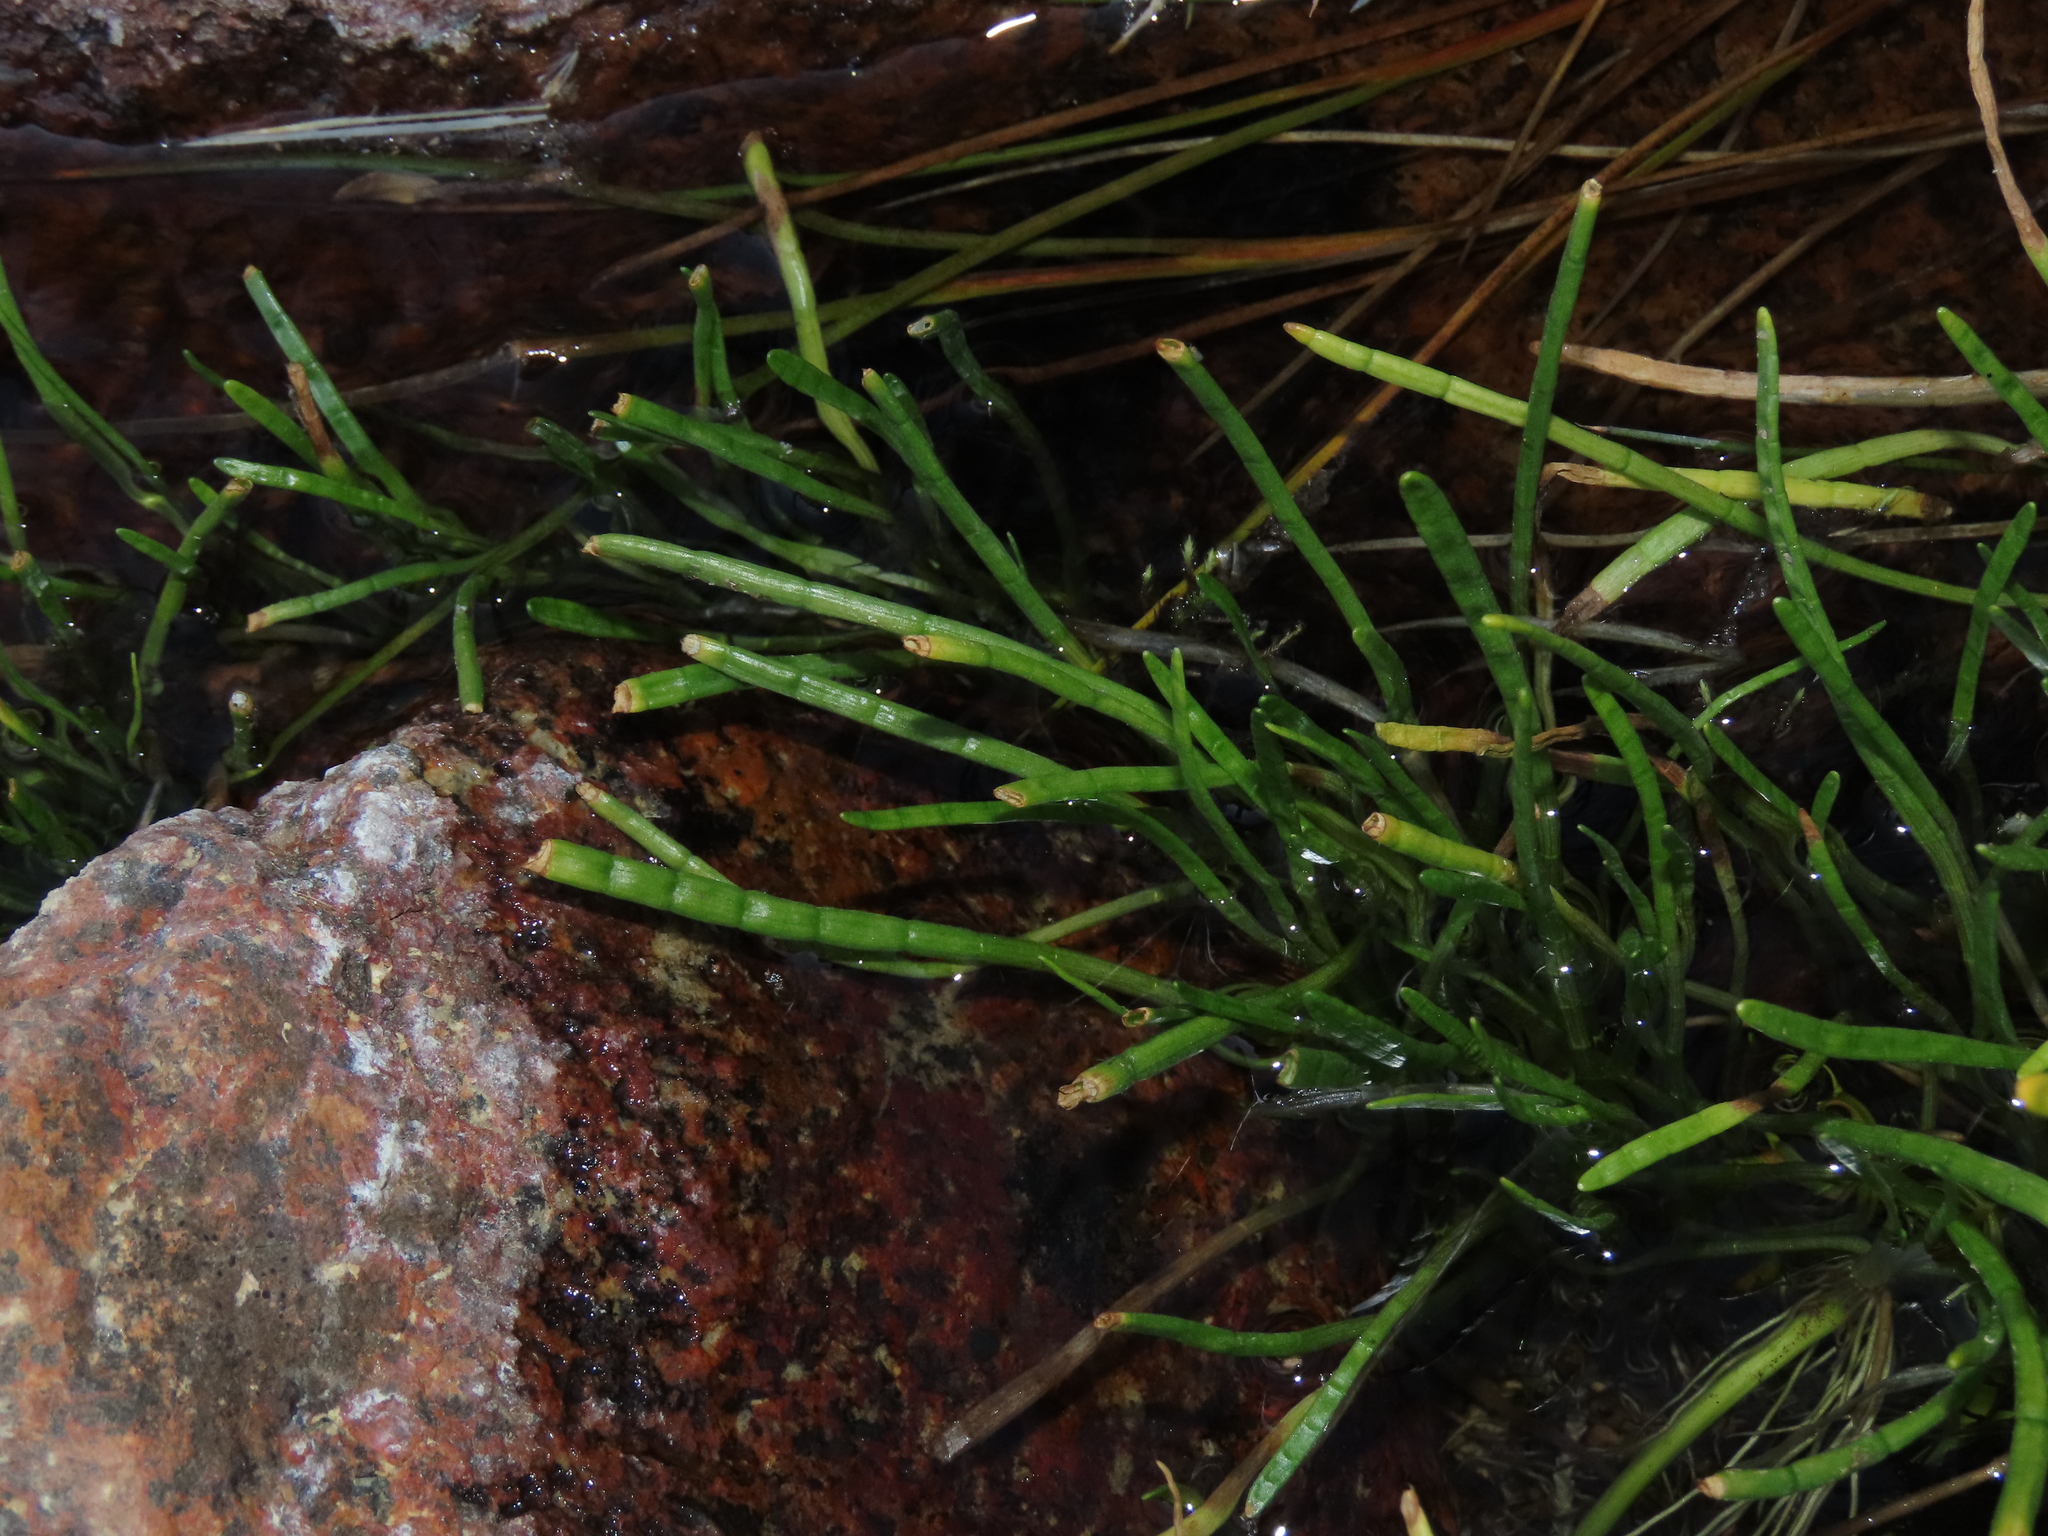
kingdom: Plantae
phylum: Tracheophyta
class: Magnoliopsida
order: Apiales
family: Apiaceae
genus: Lilaeopsis
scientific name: Lilaeopsis occidentalis
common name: Western grasswort
